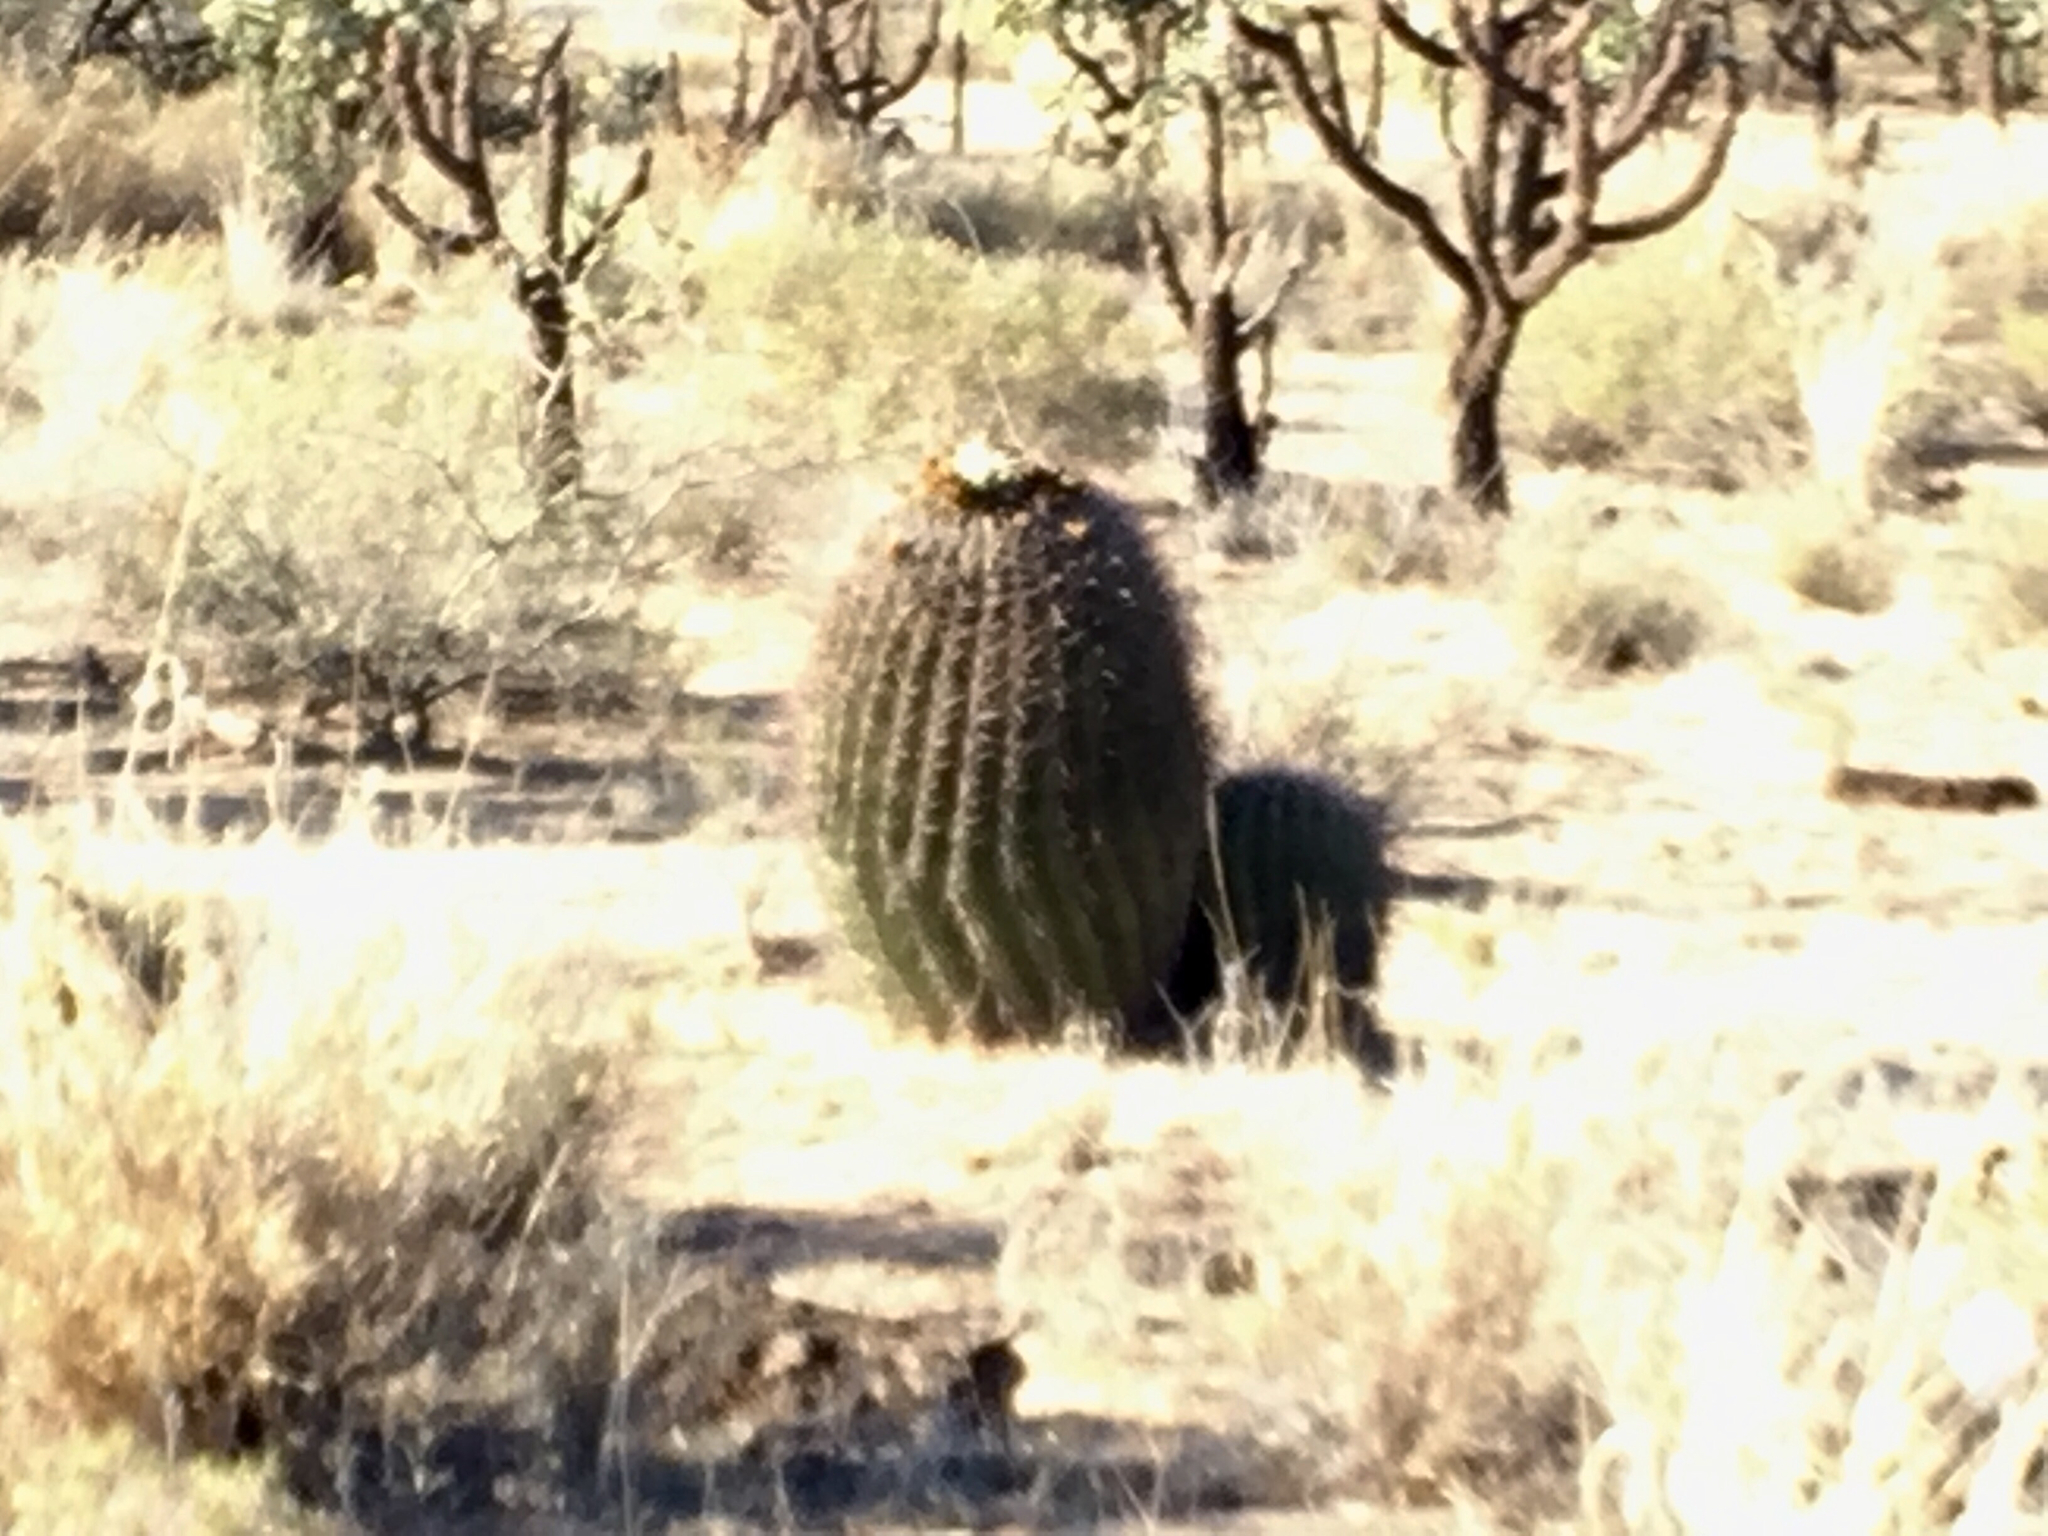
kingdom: Plantae
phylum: Tracheophyta
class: Magnoliopsida
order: Caryophyllales
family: Cactaceae
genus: Ferocactus
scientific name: Ferocactus wislizeni
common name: Candy barrel cactus
